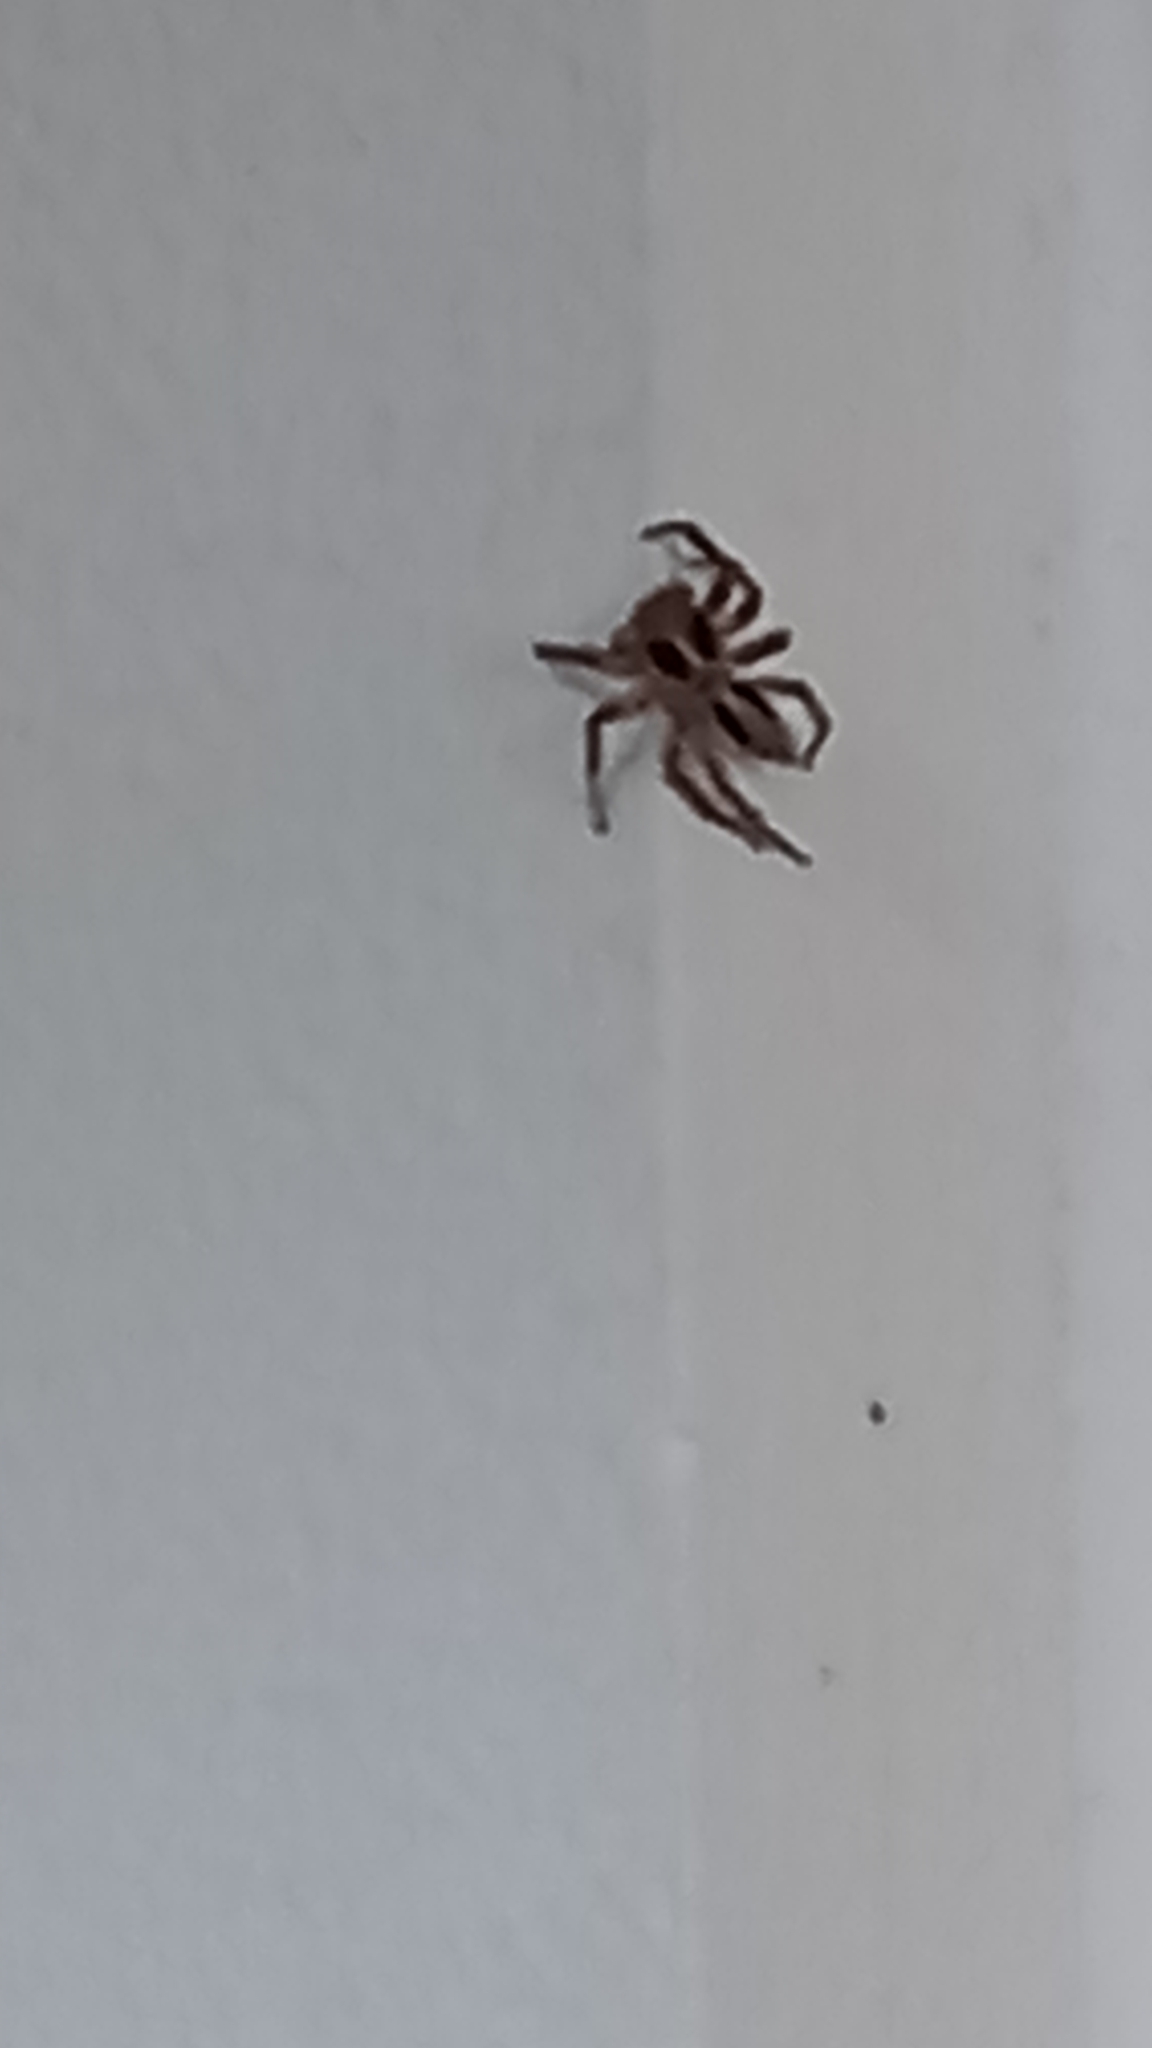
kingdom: Animalia
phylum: Arthropoda
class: Arachnida
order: Araneae
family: Salticidae
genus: Plexippus
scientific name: Plexippus petersi
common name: Jumping spider
